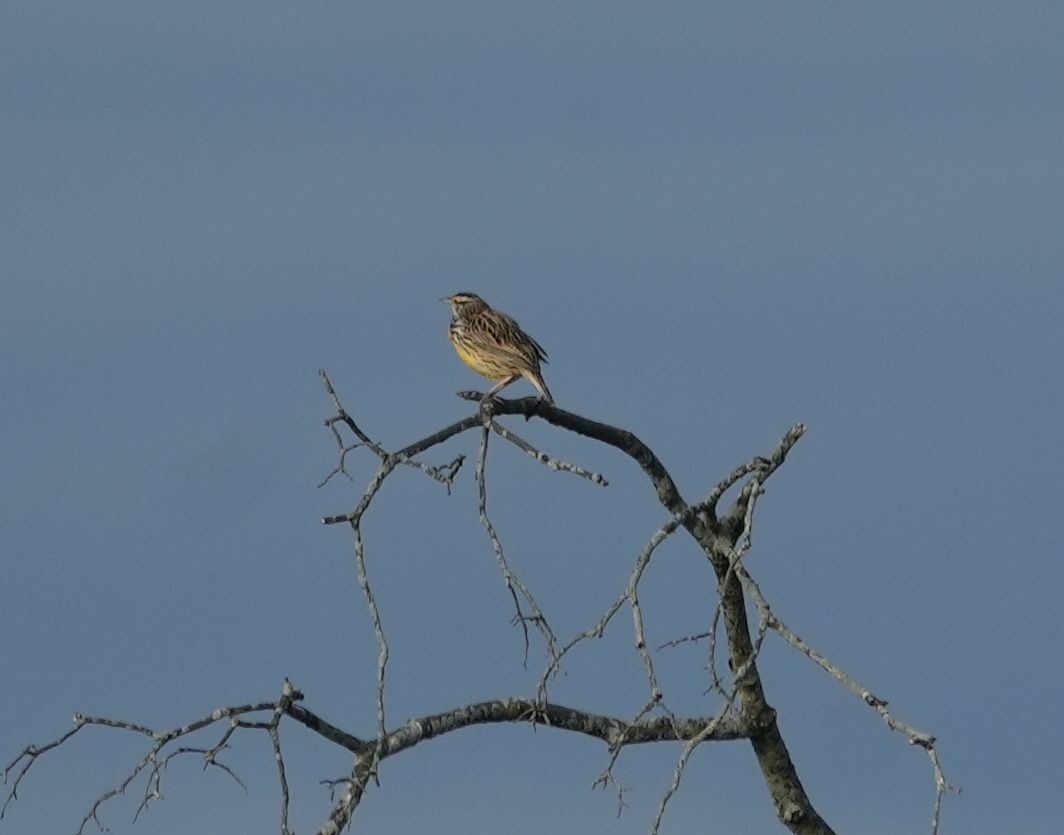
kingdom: Animalia
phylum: Chordata
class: Aves
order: Passeriformes
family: Icteridae
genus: Sturnella
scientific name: Sturnella magna
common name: Eastern meadowlark
